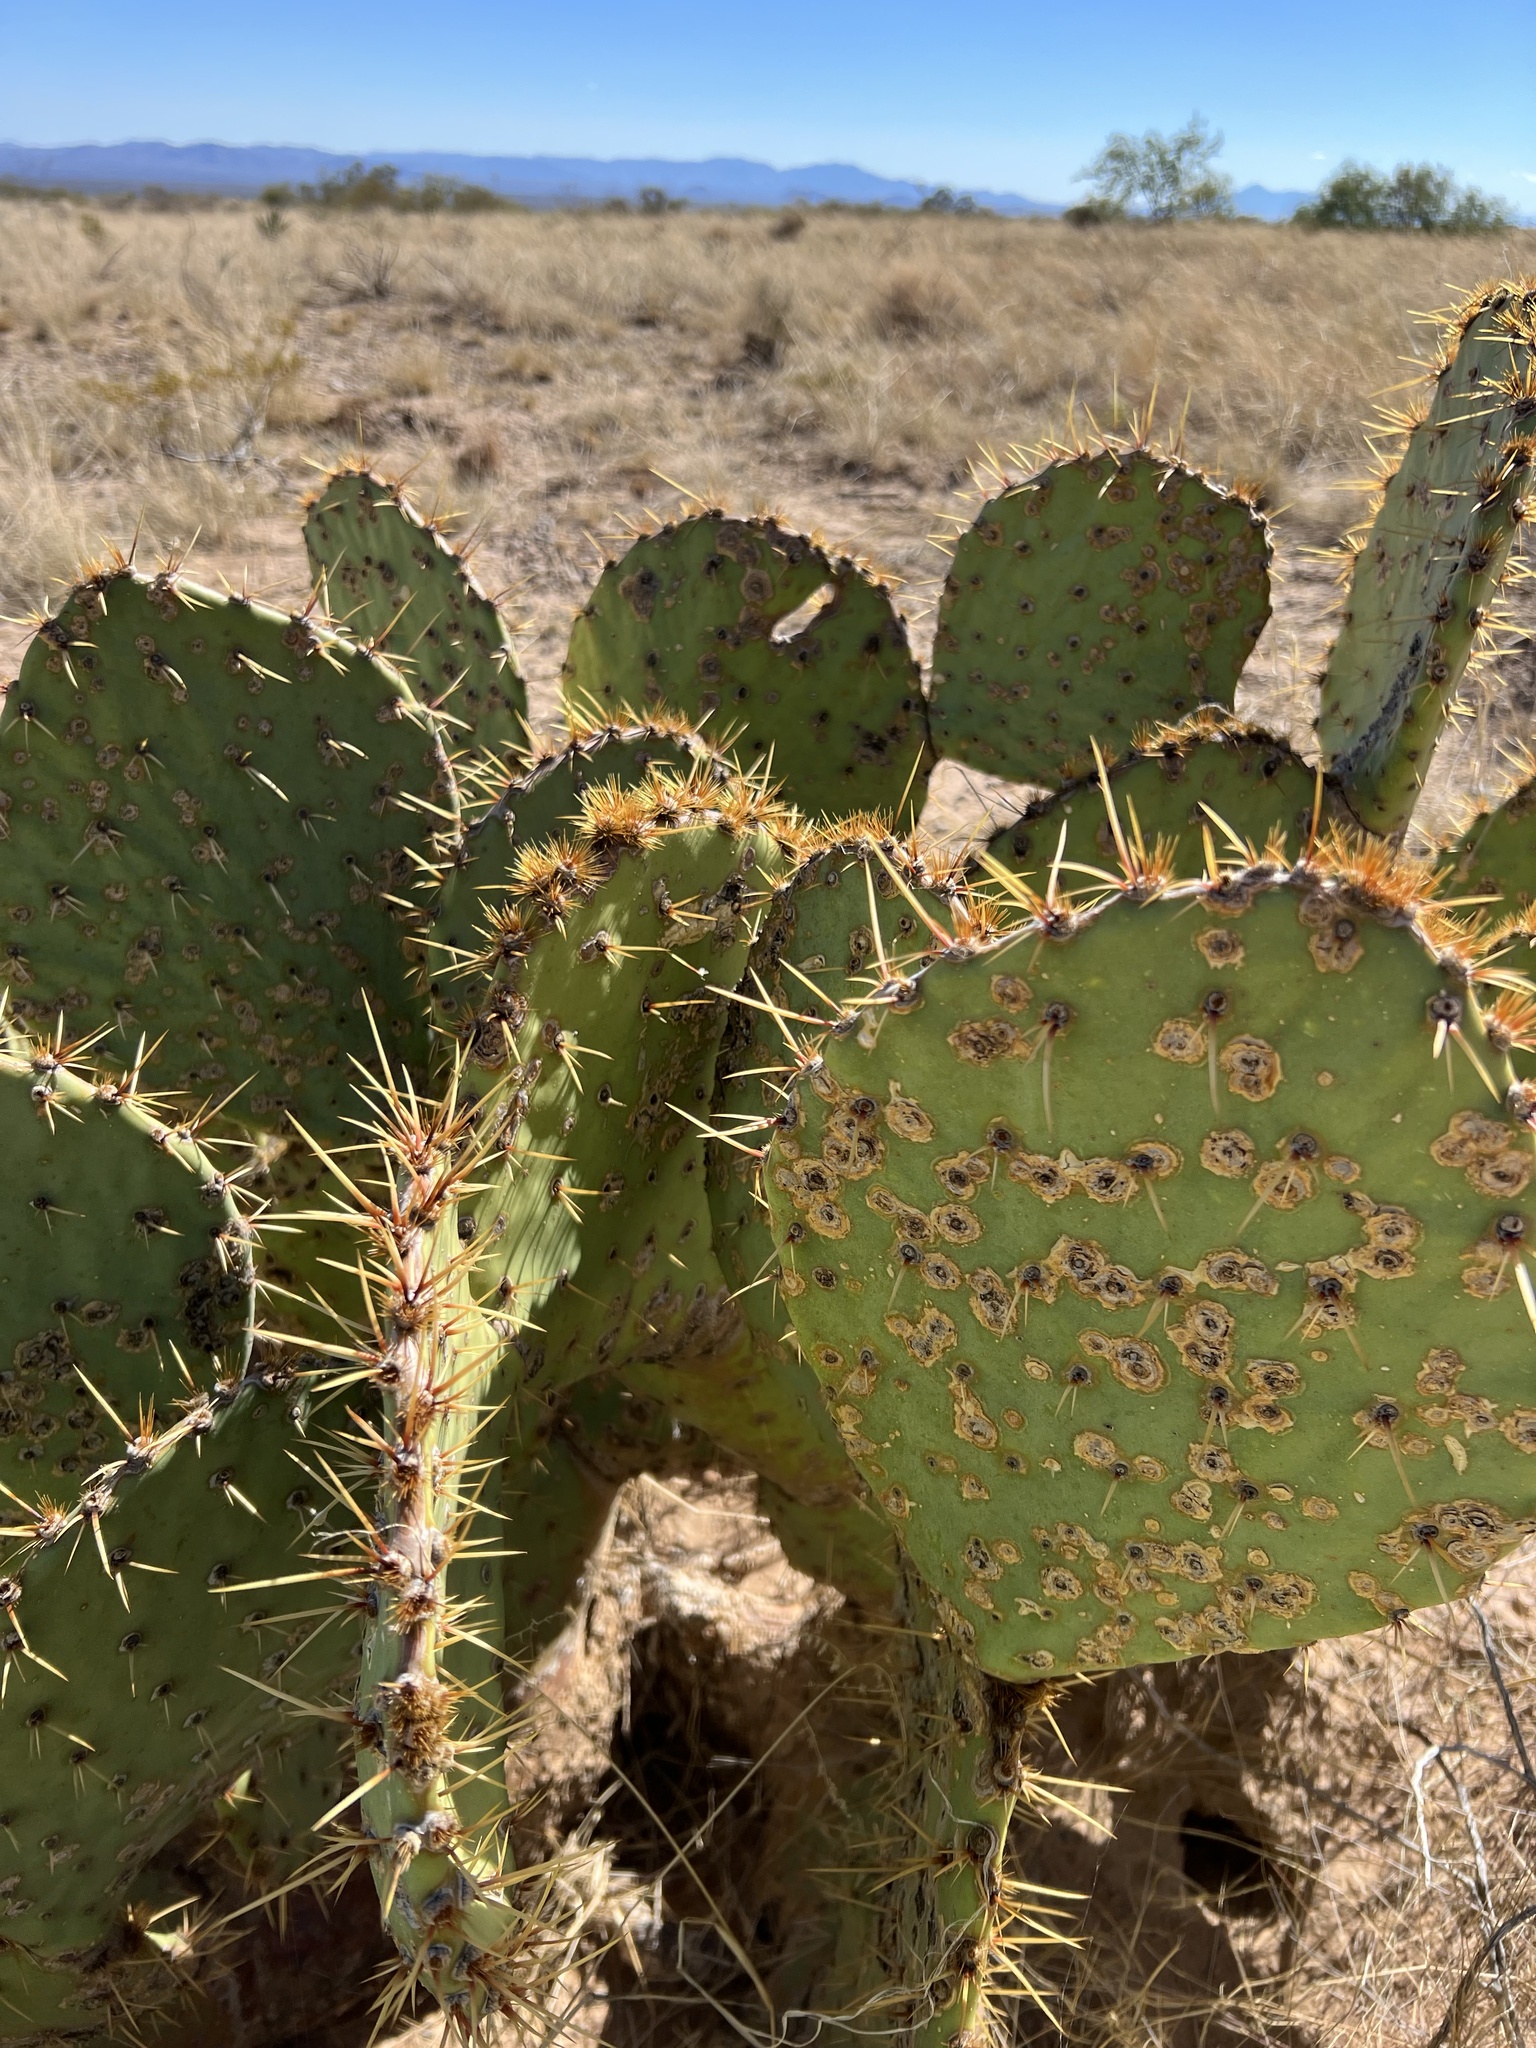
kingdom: Plantae
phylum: Tracheophyta
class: Magnoliopsida
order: Caryophyllales
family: Cactaceae
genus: Opuntia
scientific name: Opuntia engelmannii
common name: Cactus-apple
